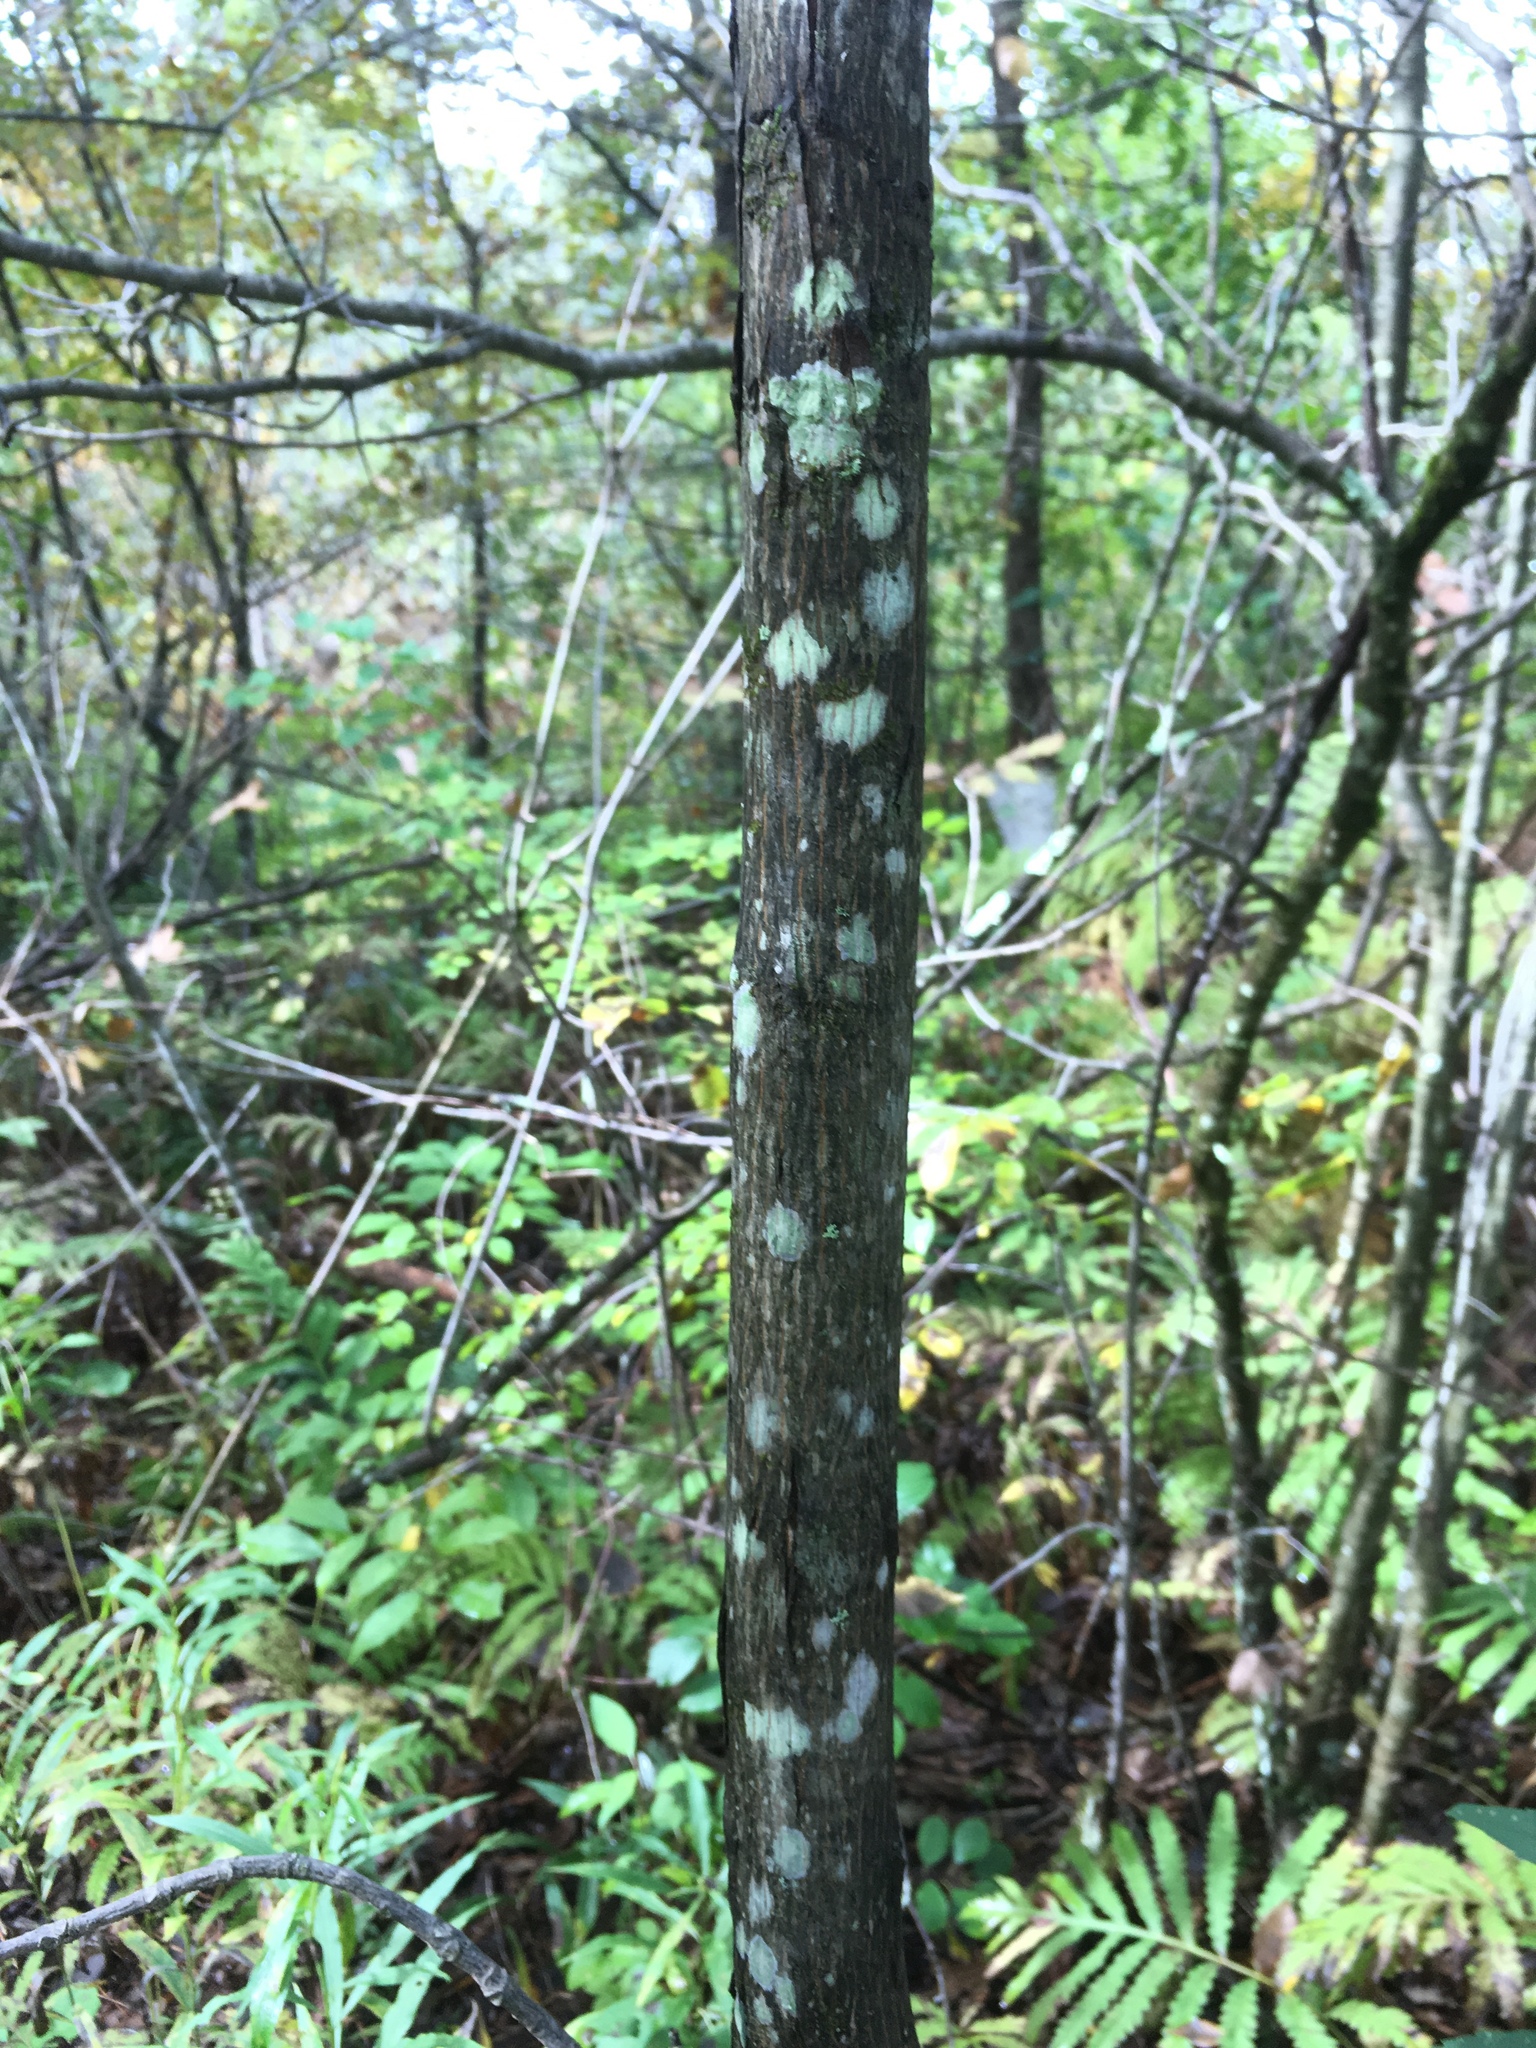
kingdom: Plantae
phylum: Tracheophyta
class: Magnoliopsida
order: Fagales
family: Juglandaceae
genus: Carya
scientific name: Carya ovata
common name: Shagbark hickory
